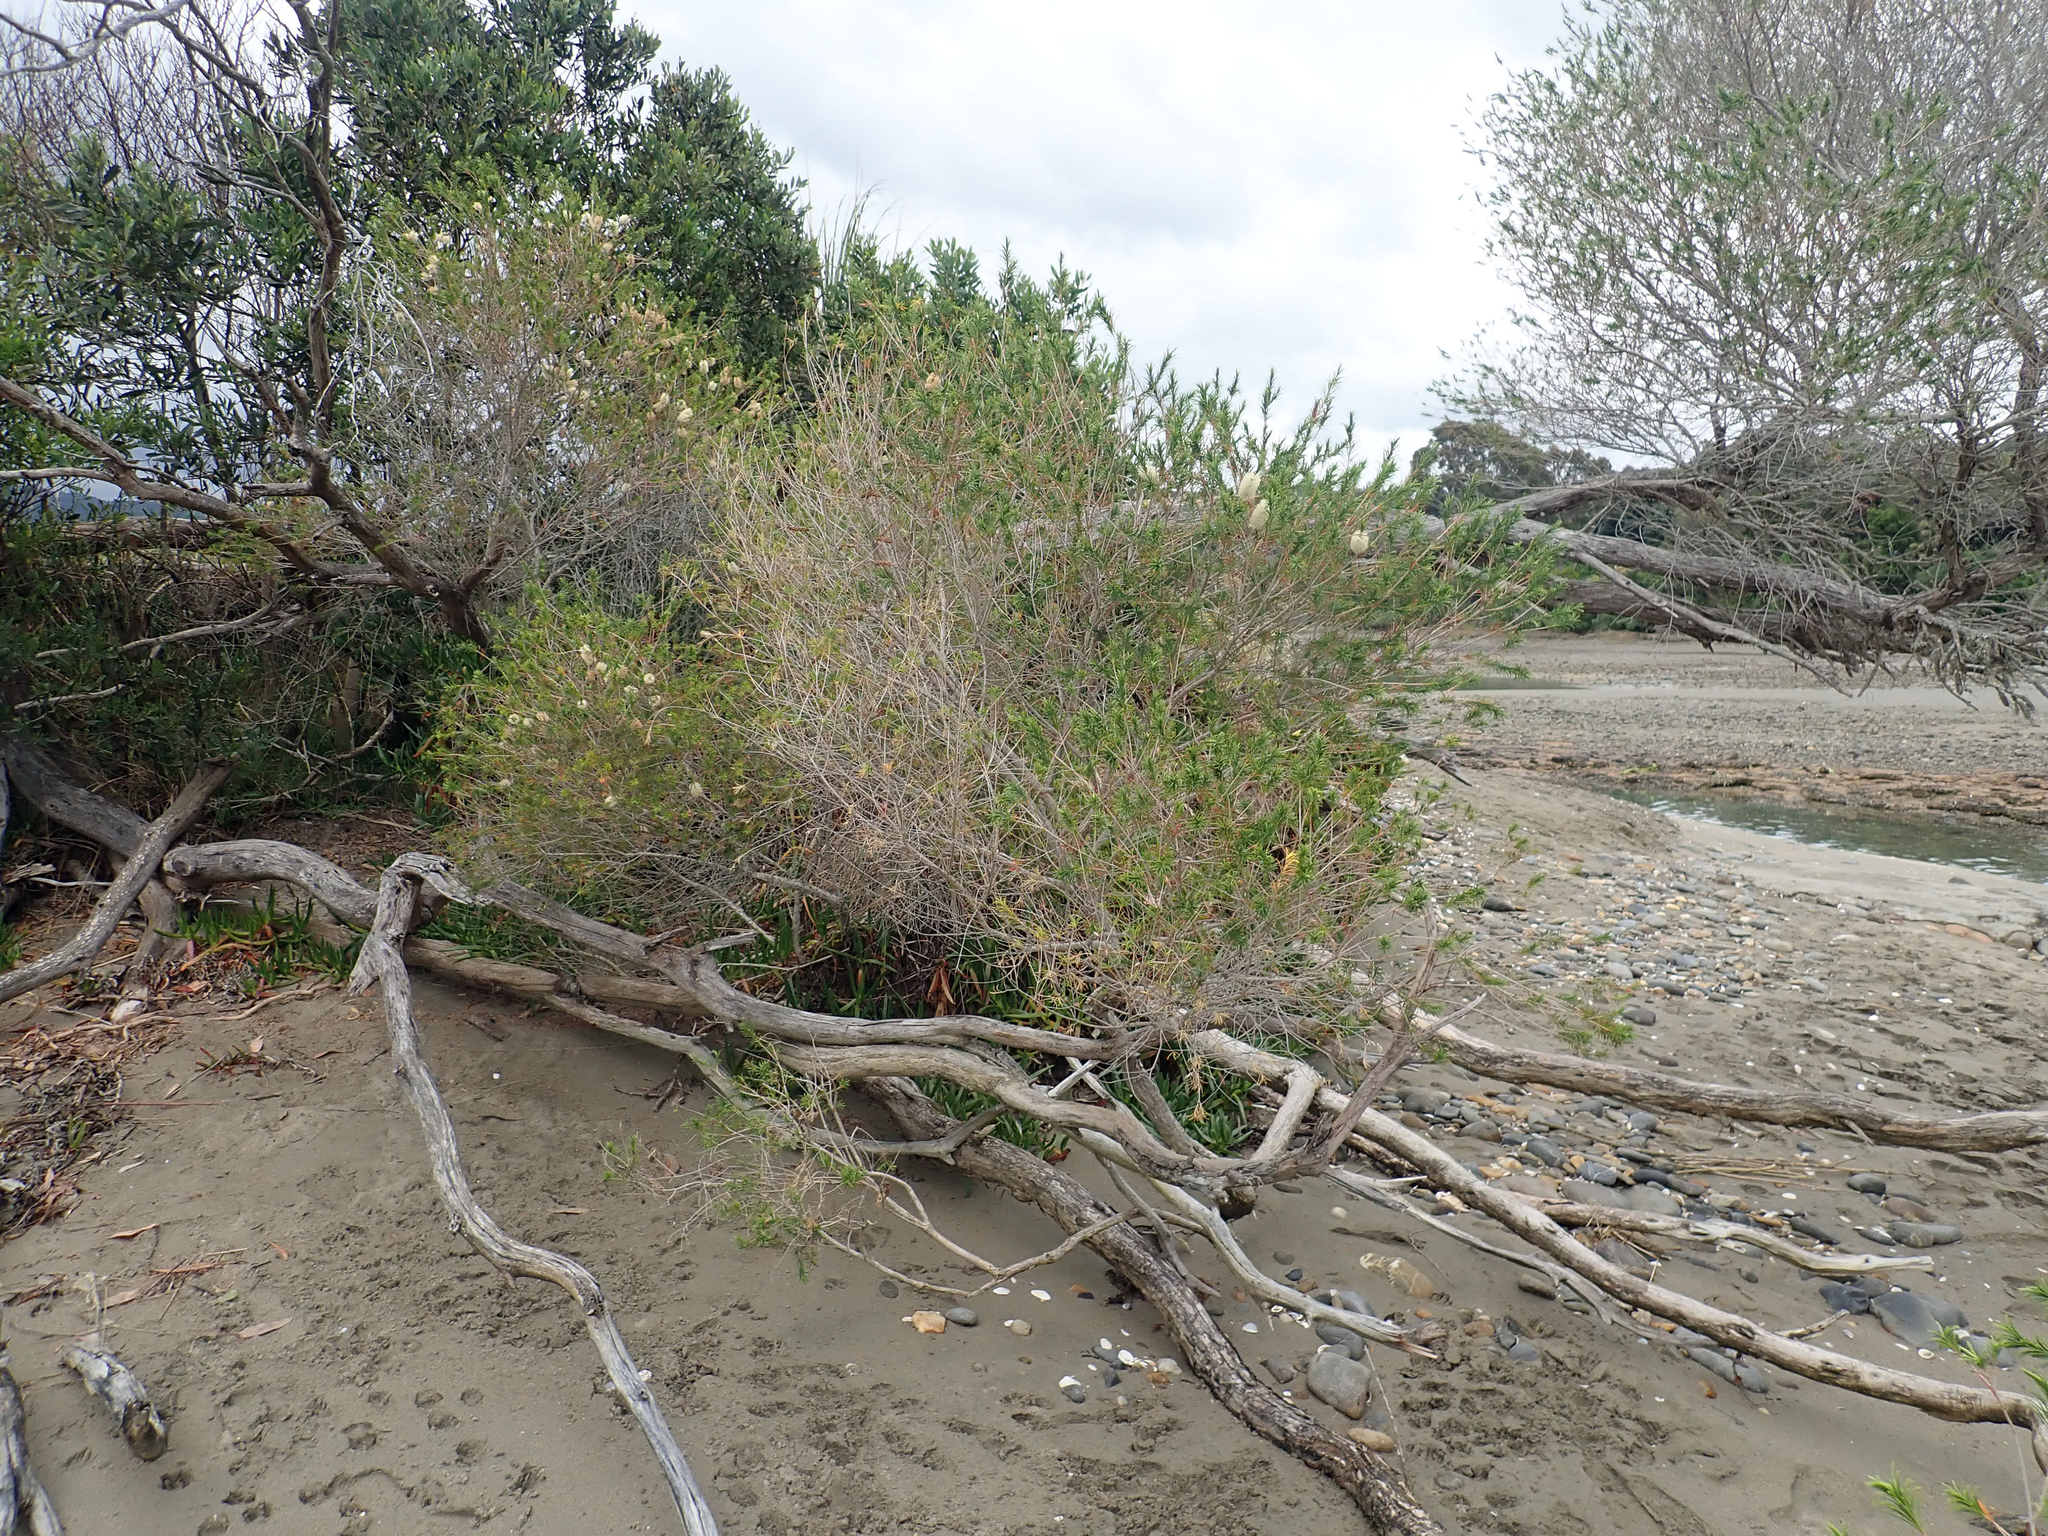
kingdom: Plantae
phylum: Tracheophyta
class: Magnoliopsida
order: Myrtales
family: Myrtaceae
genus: Melaleuca
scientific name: Melaleuca armillaris
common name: Bracelet honey myrtle
